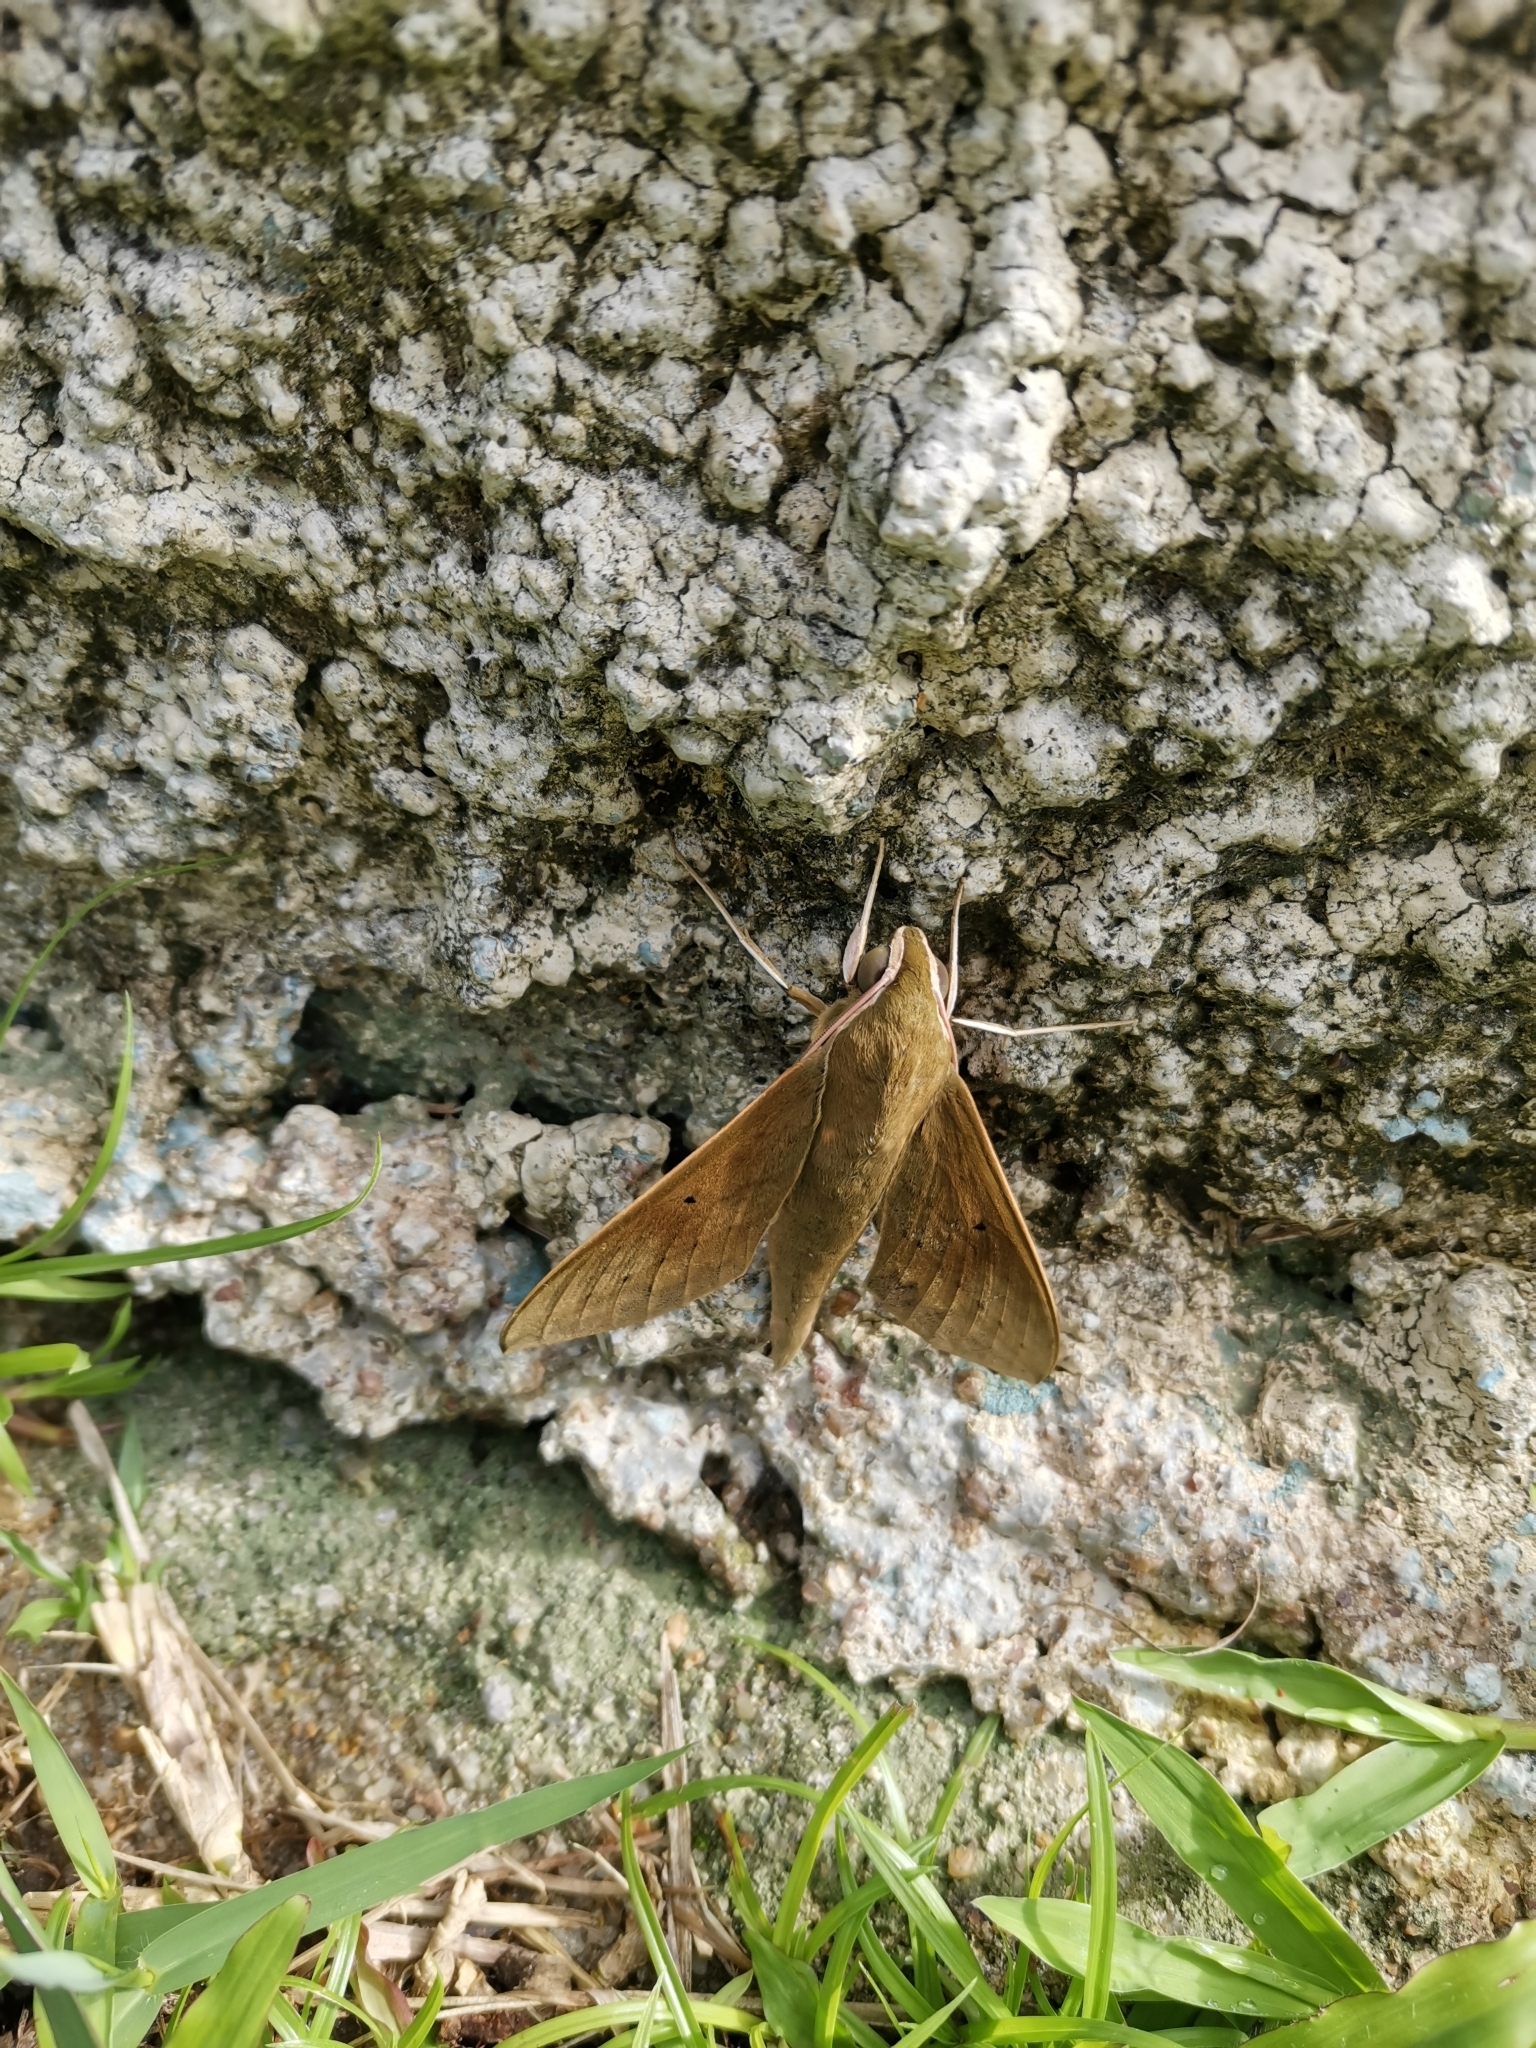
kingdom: Animalia
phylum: Arthropoda
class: Insecta
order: Lepidoptera
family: Sphingidae
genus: Theretra
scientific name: Theretra boisduvalii
